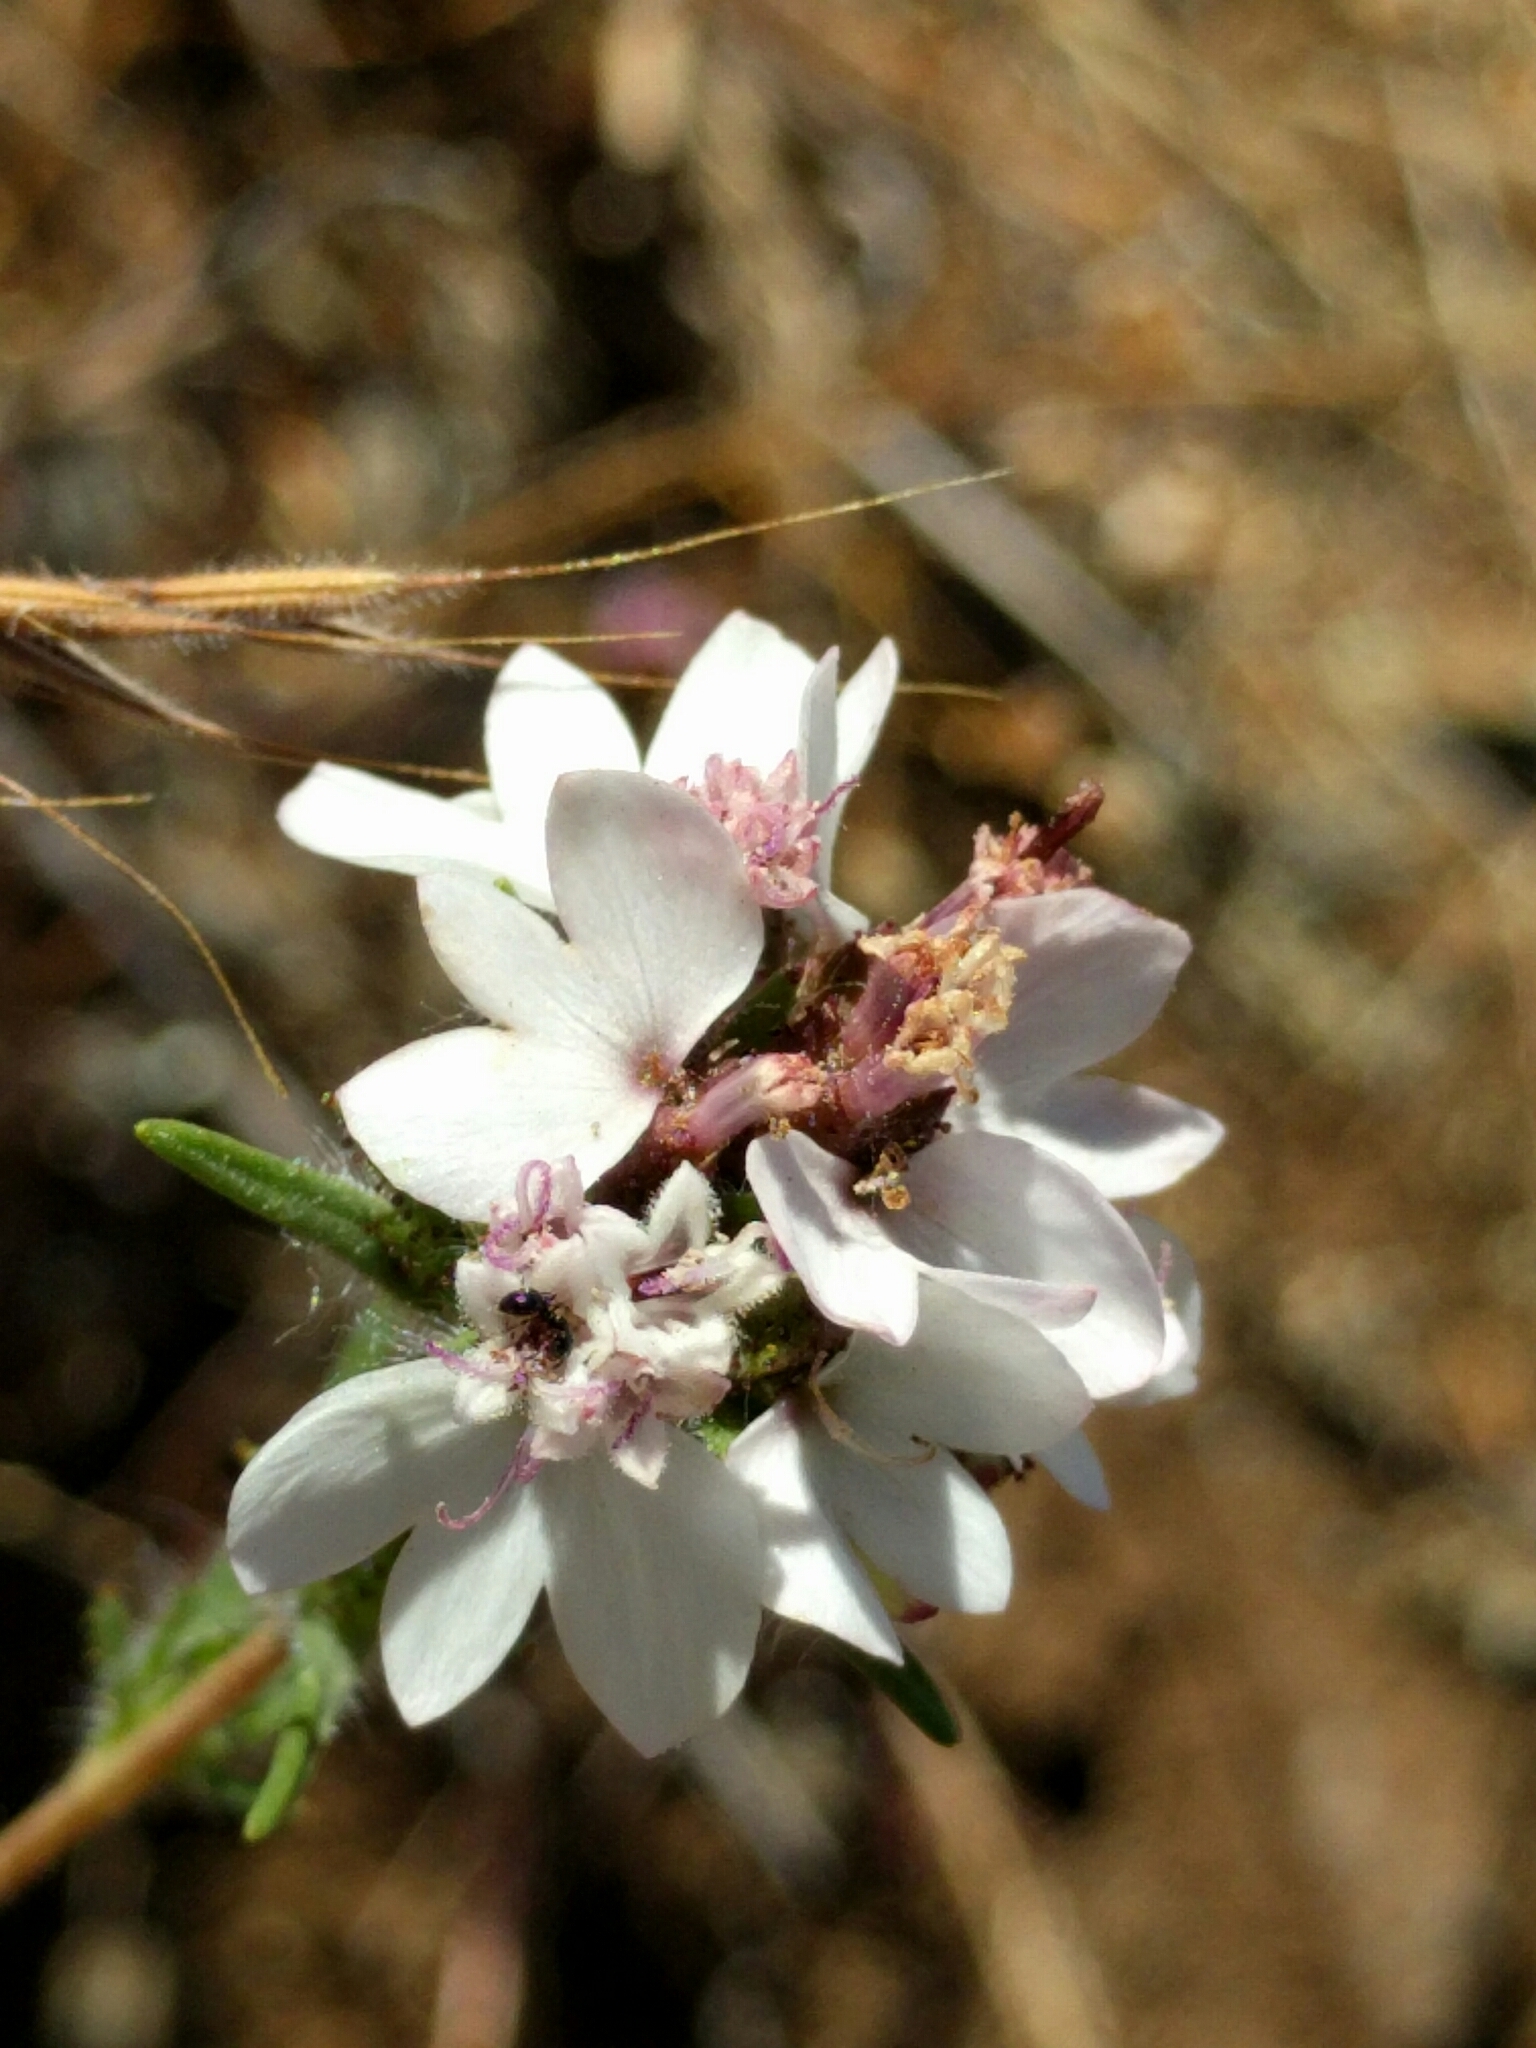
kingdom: Plantae
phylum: Tracheophyta
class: Magnoliopsida
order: Asterales
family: Asteraceae
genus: Calycadenia
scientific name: Calycadenia multiglandulosa
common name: Sticky calycadenia
